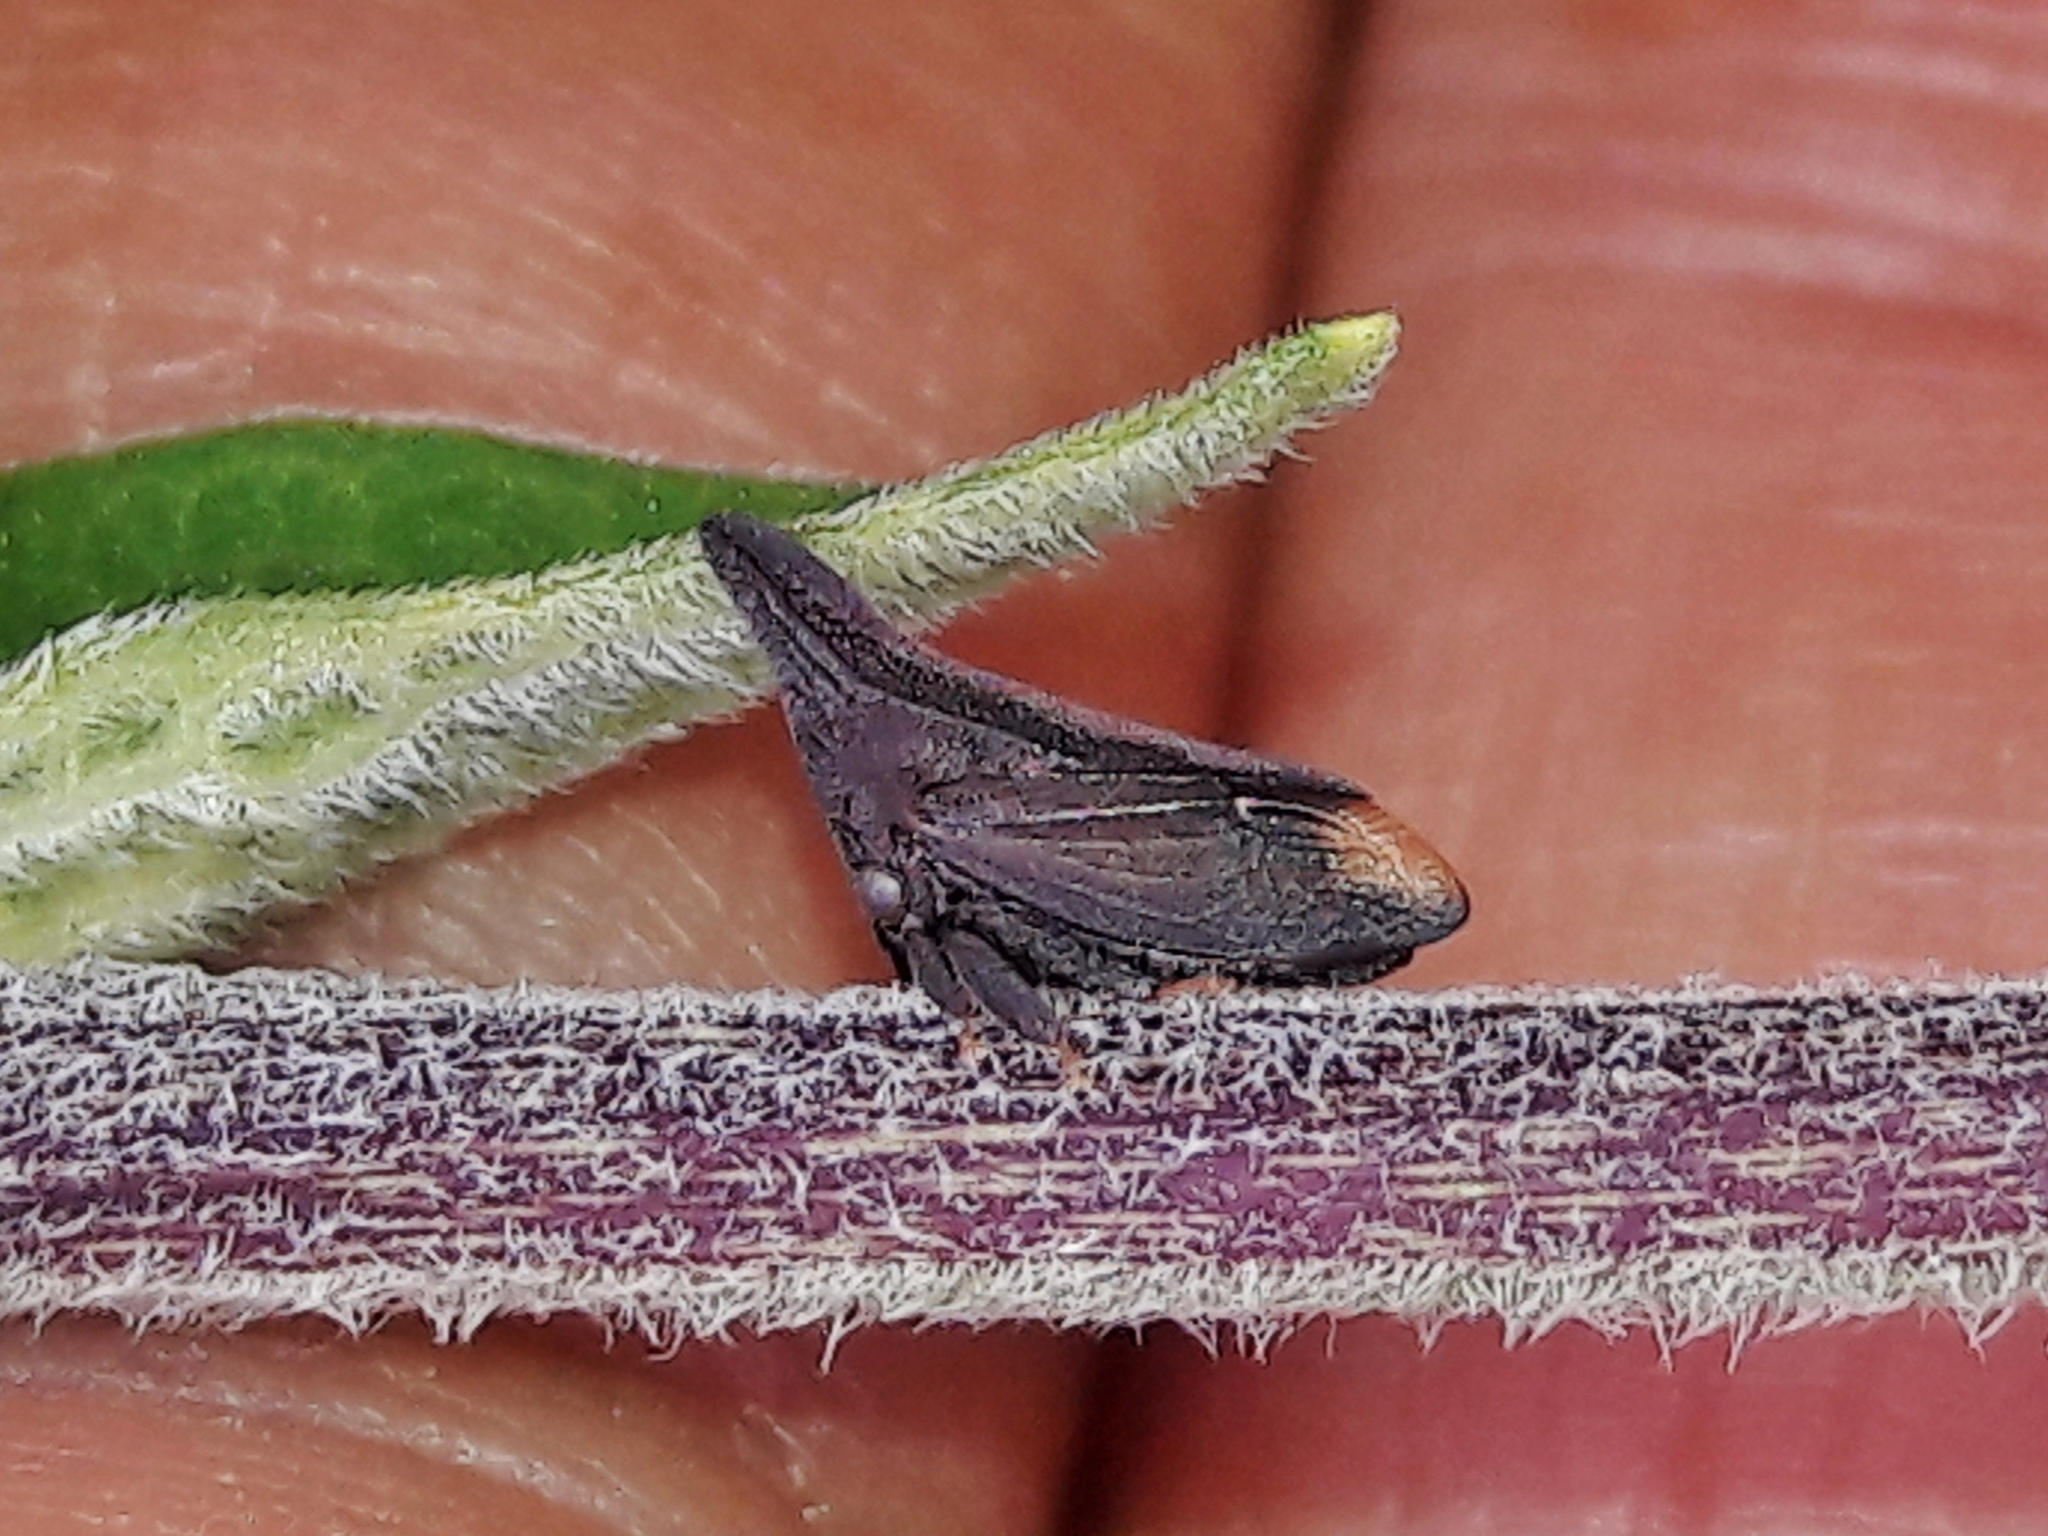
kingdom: Animalia
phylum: Arthropoda
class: Insecta
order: Hemiptera
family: Membracidae
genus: Enchenopa
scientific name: Enchenopa monoceros
